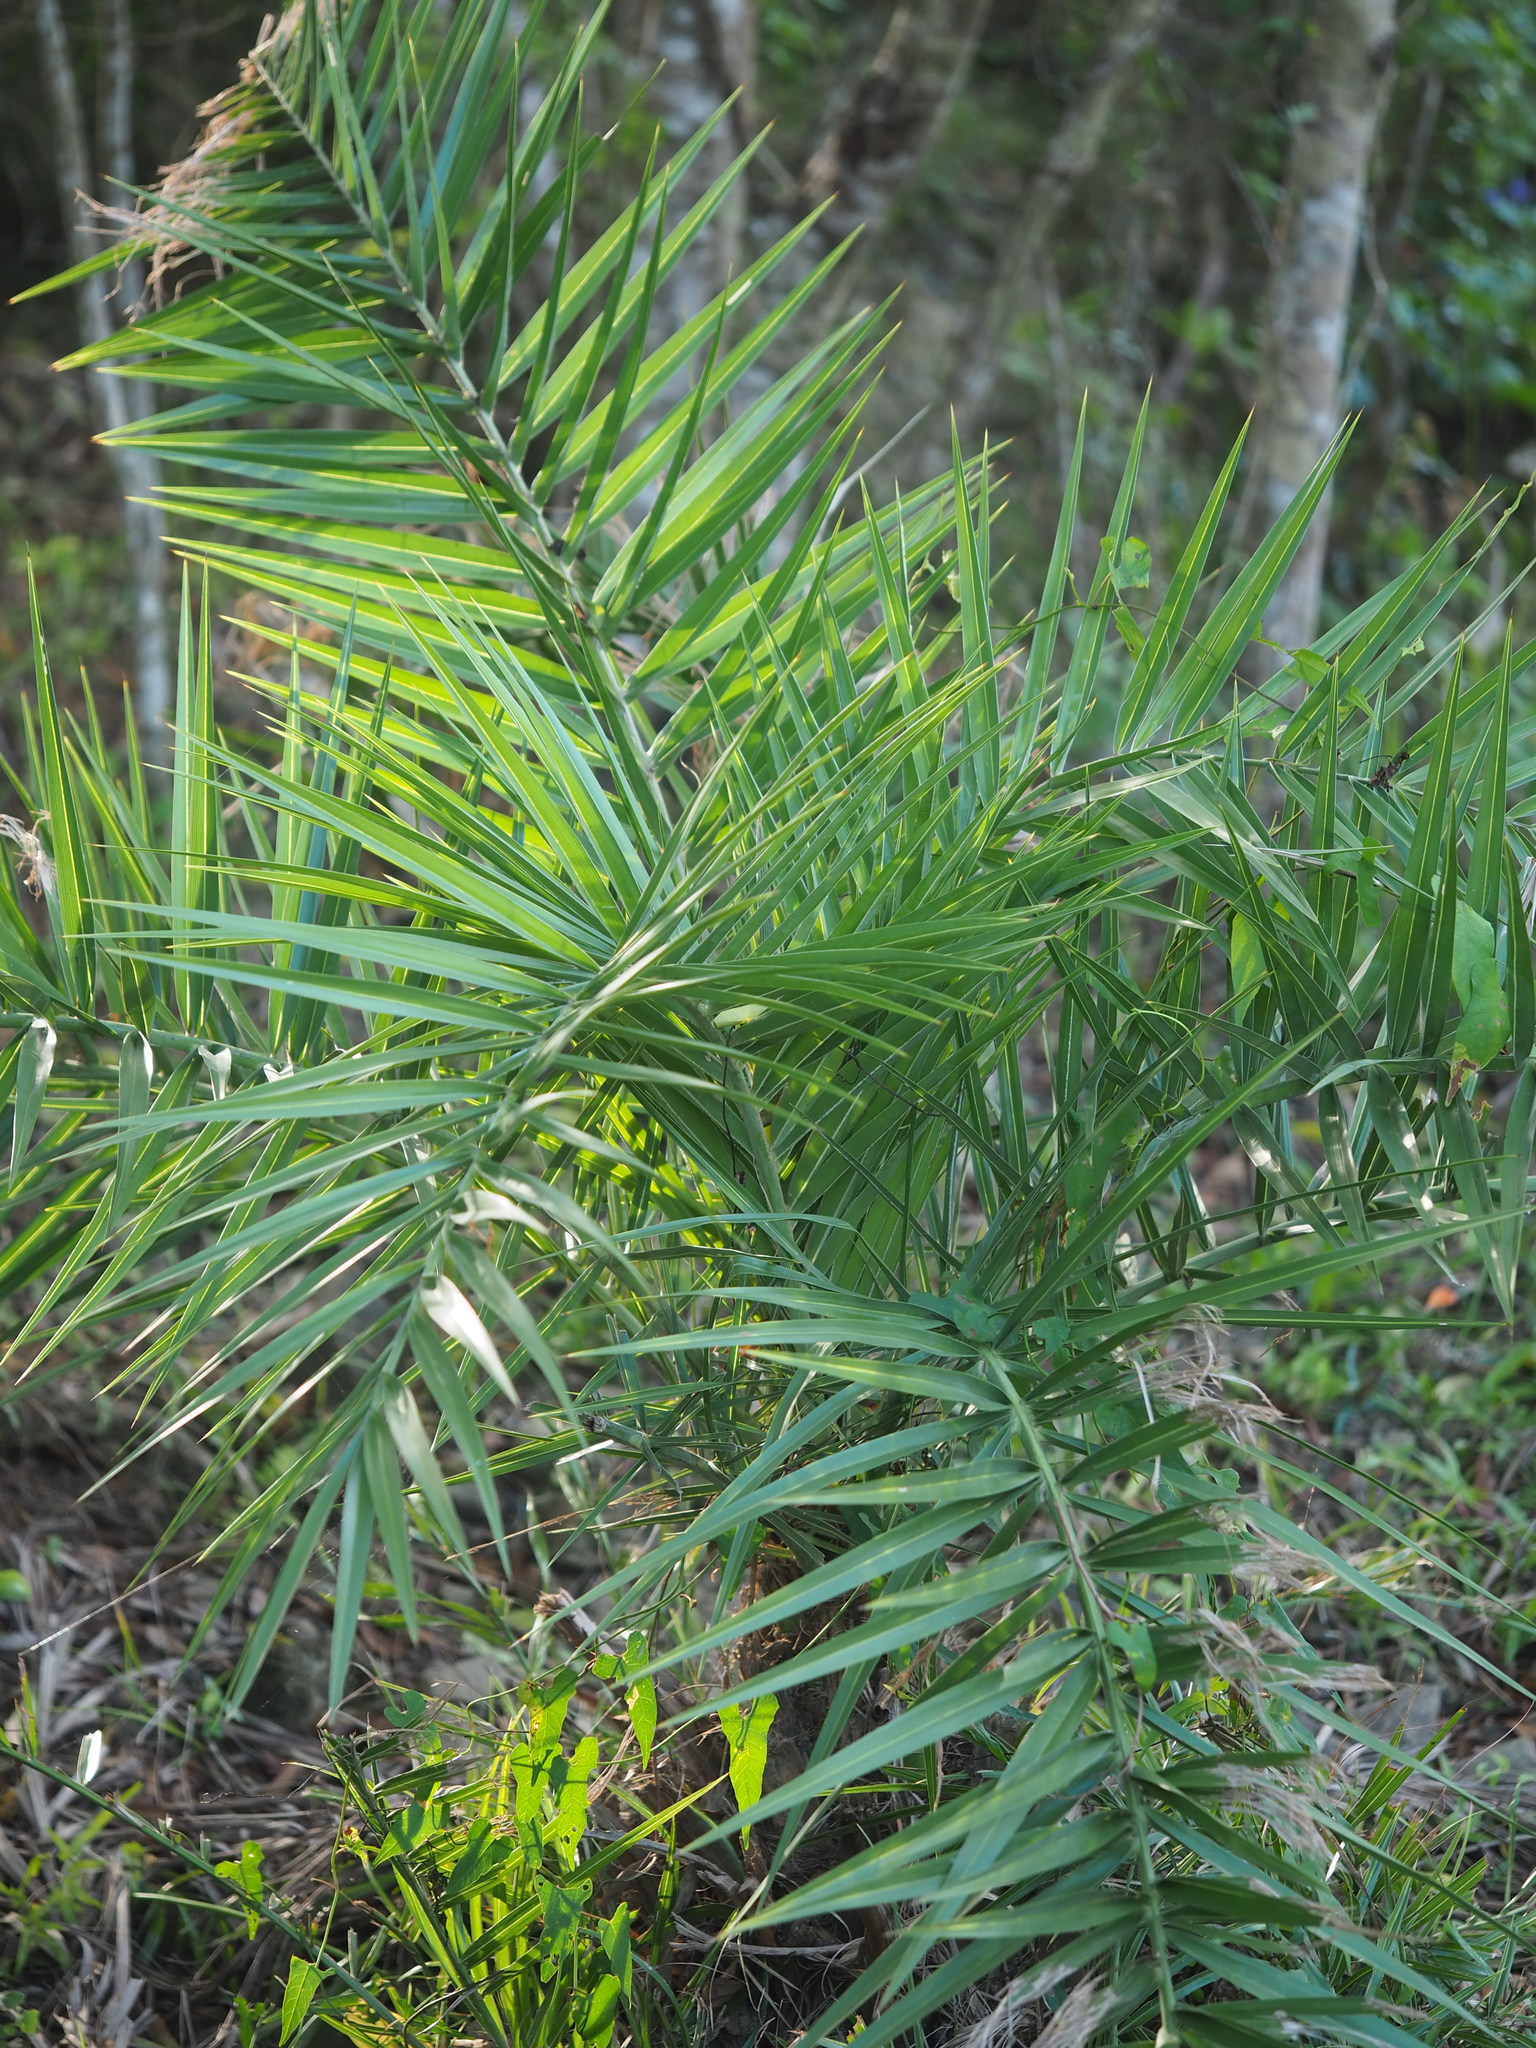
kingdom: Plantae
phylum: Tracheophyta
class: Liliopsida
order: Arecales
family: Arecaceae
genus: Phoenix
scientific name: Phoenix loureiroi
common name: Loureiro's palm
